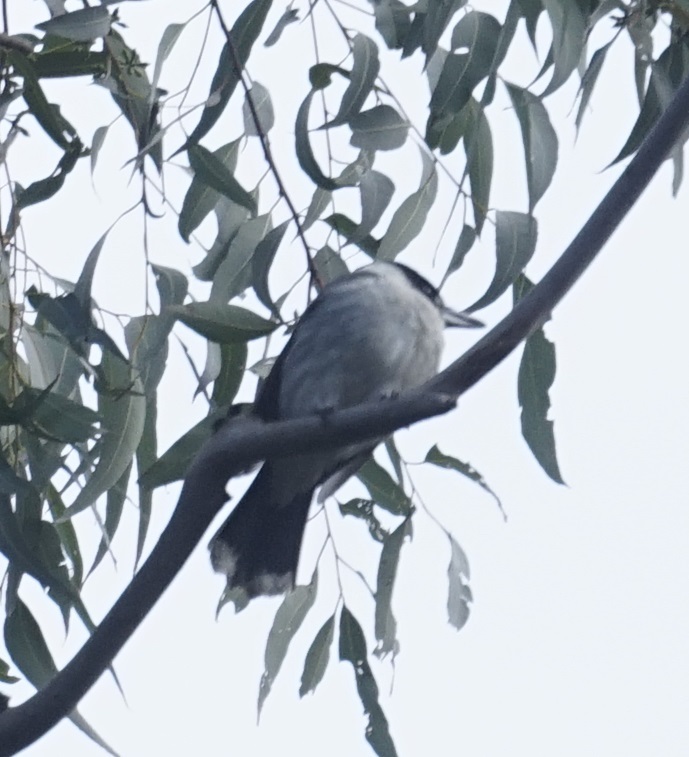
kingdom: Animalia
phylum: Chordata
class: Aves
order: Passeriformes
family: Cracticidae
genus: Cracticus
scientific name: Cracticus torquatus
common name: Grey butcherbird
